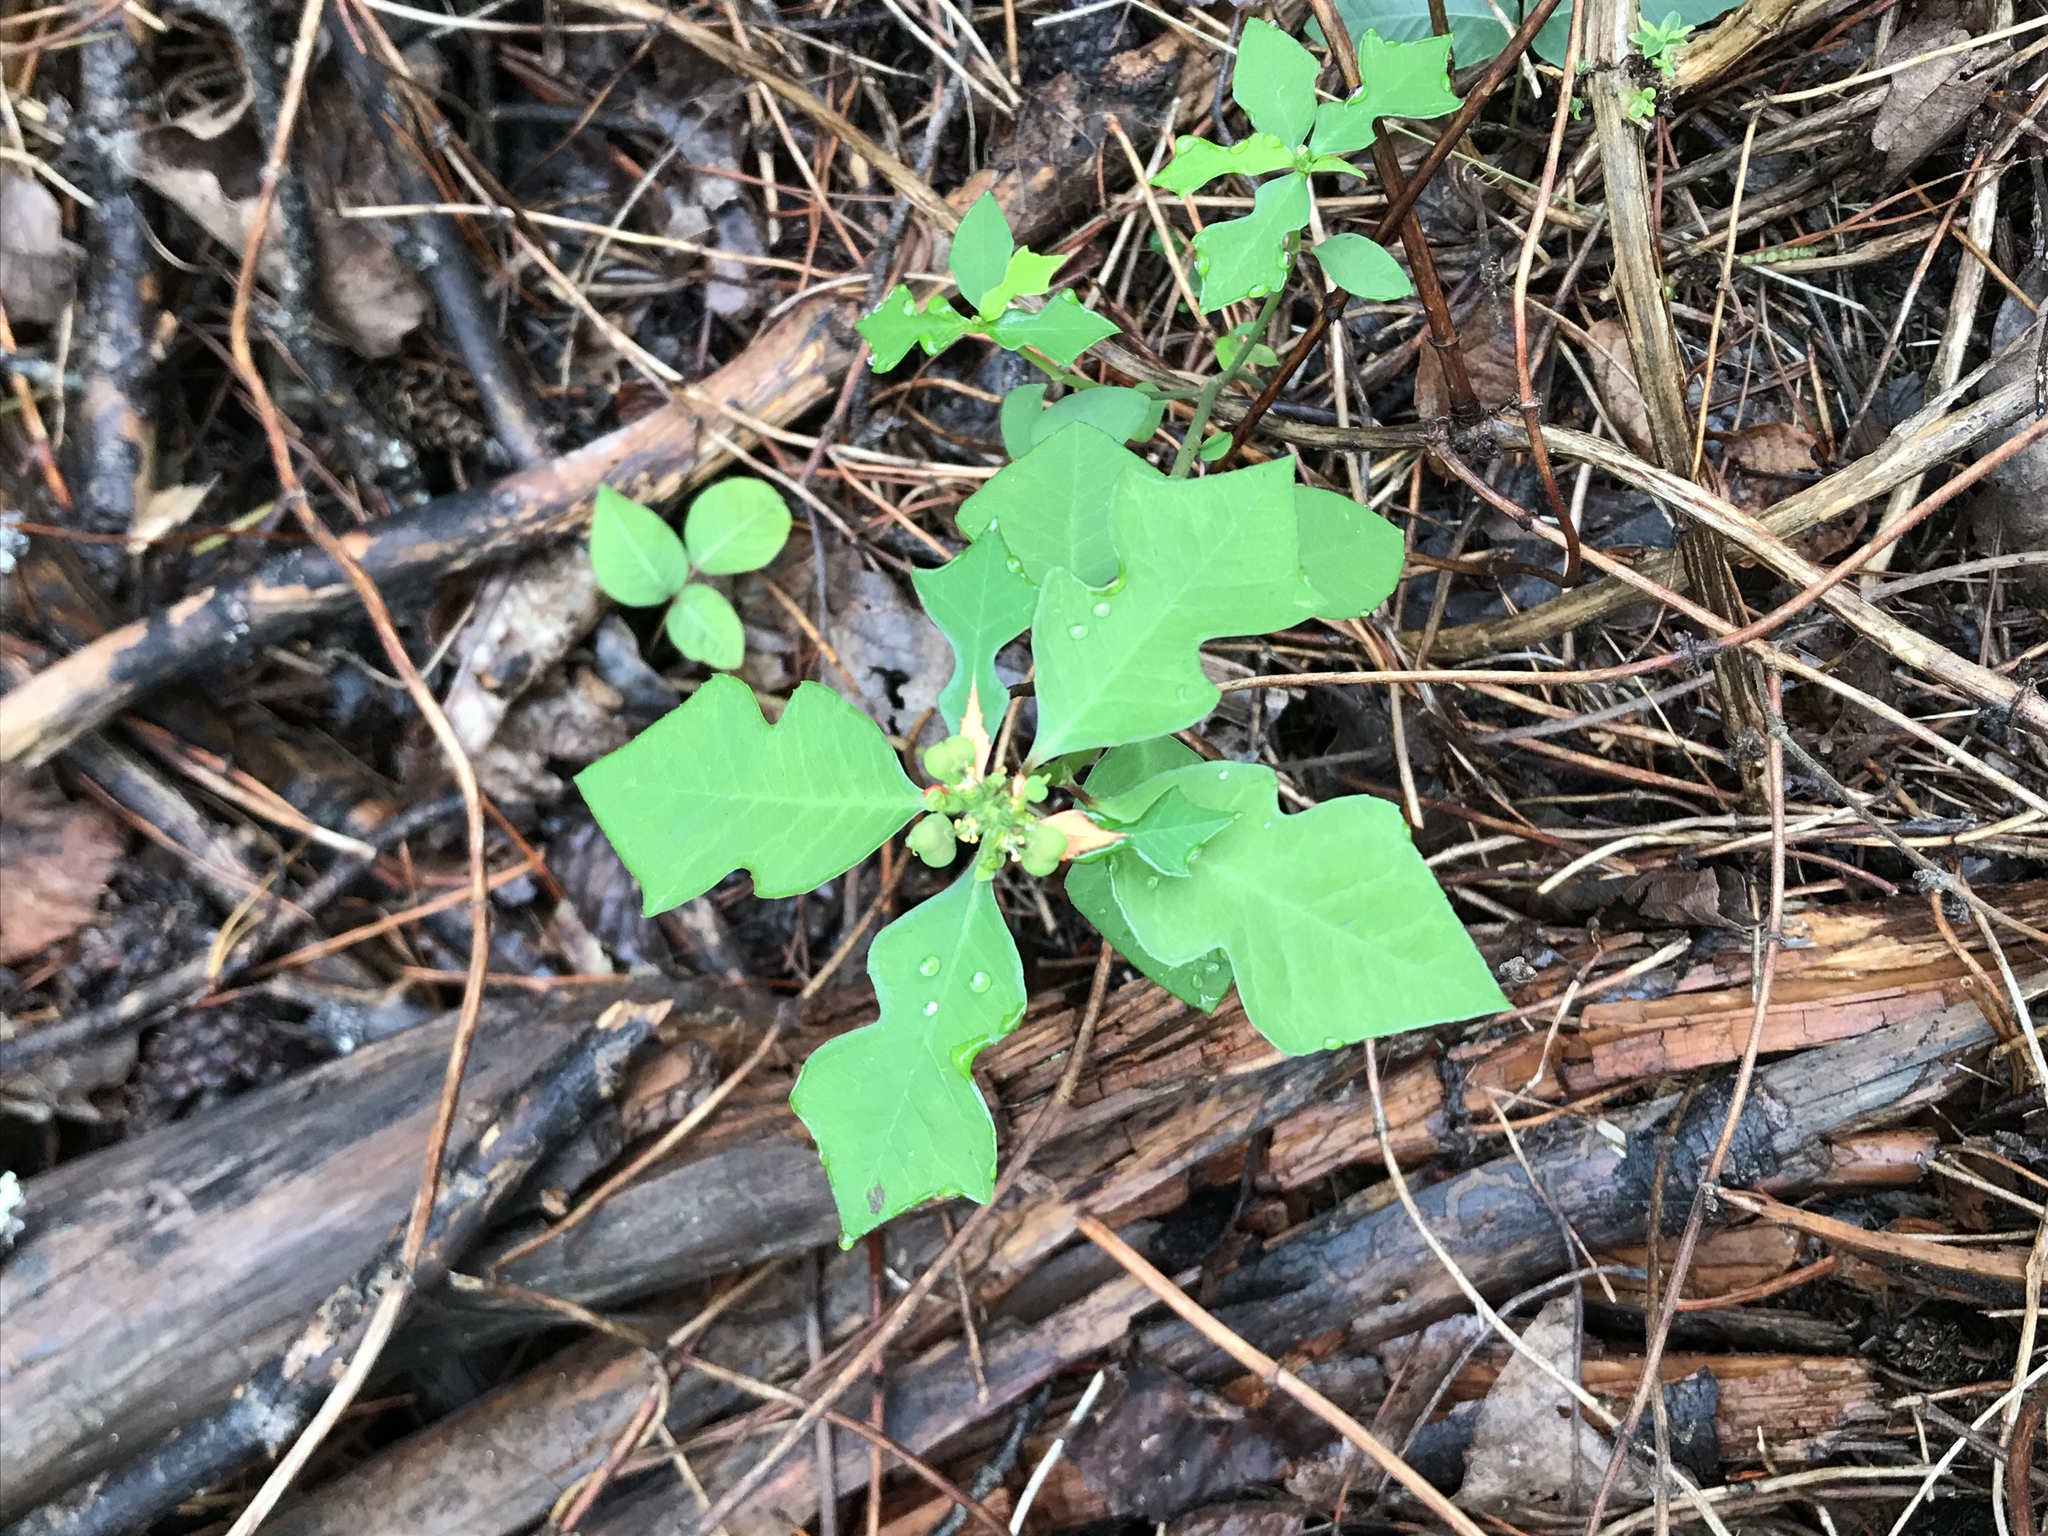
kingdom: Plantae
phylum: Tracheophyta
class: Magnoliopsida
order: Malpighiales
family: Euphorbiaceae
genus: Euphorbia
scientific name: Euphorbia heterophylla
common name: Mexican fireplant
